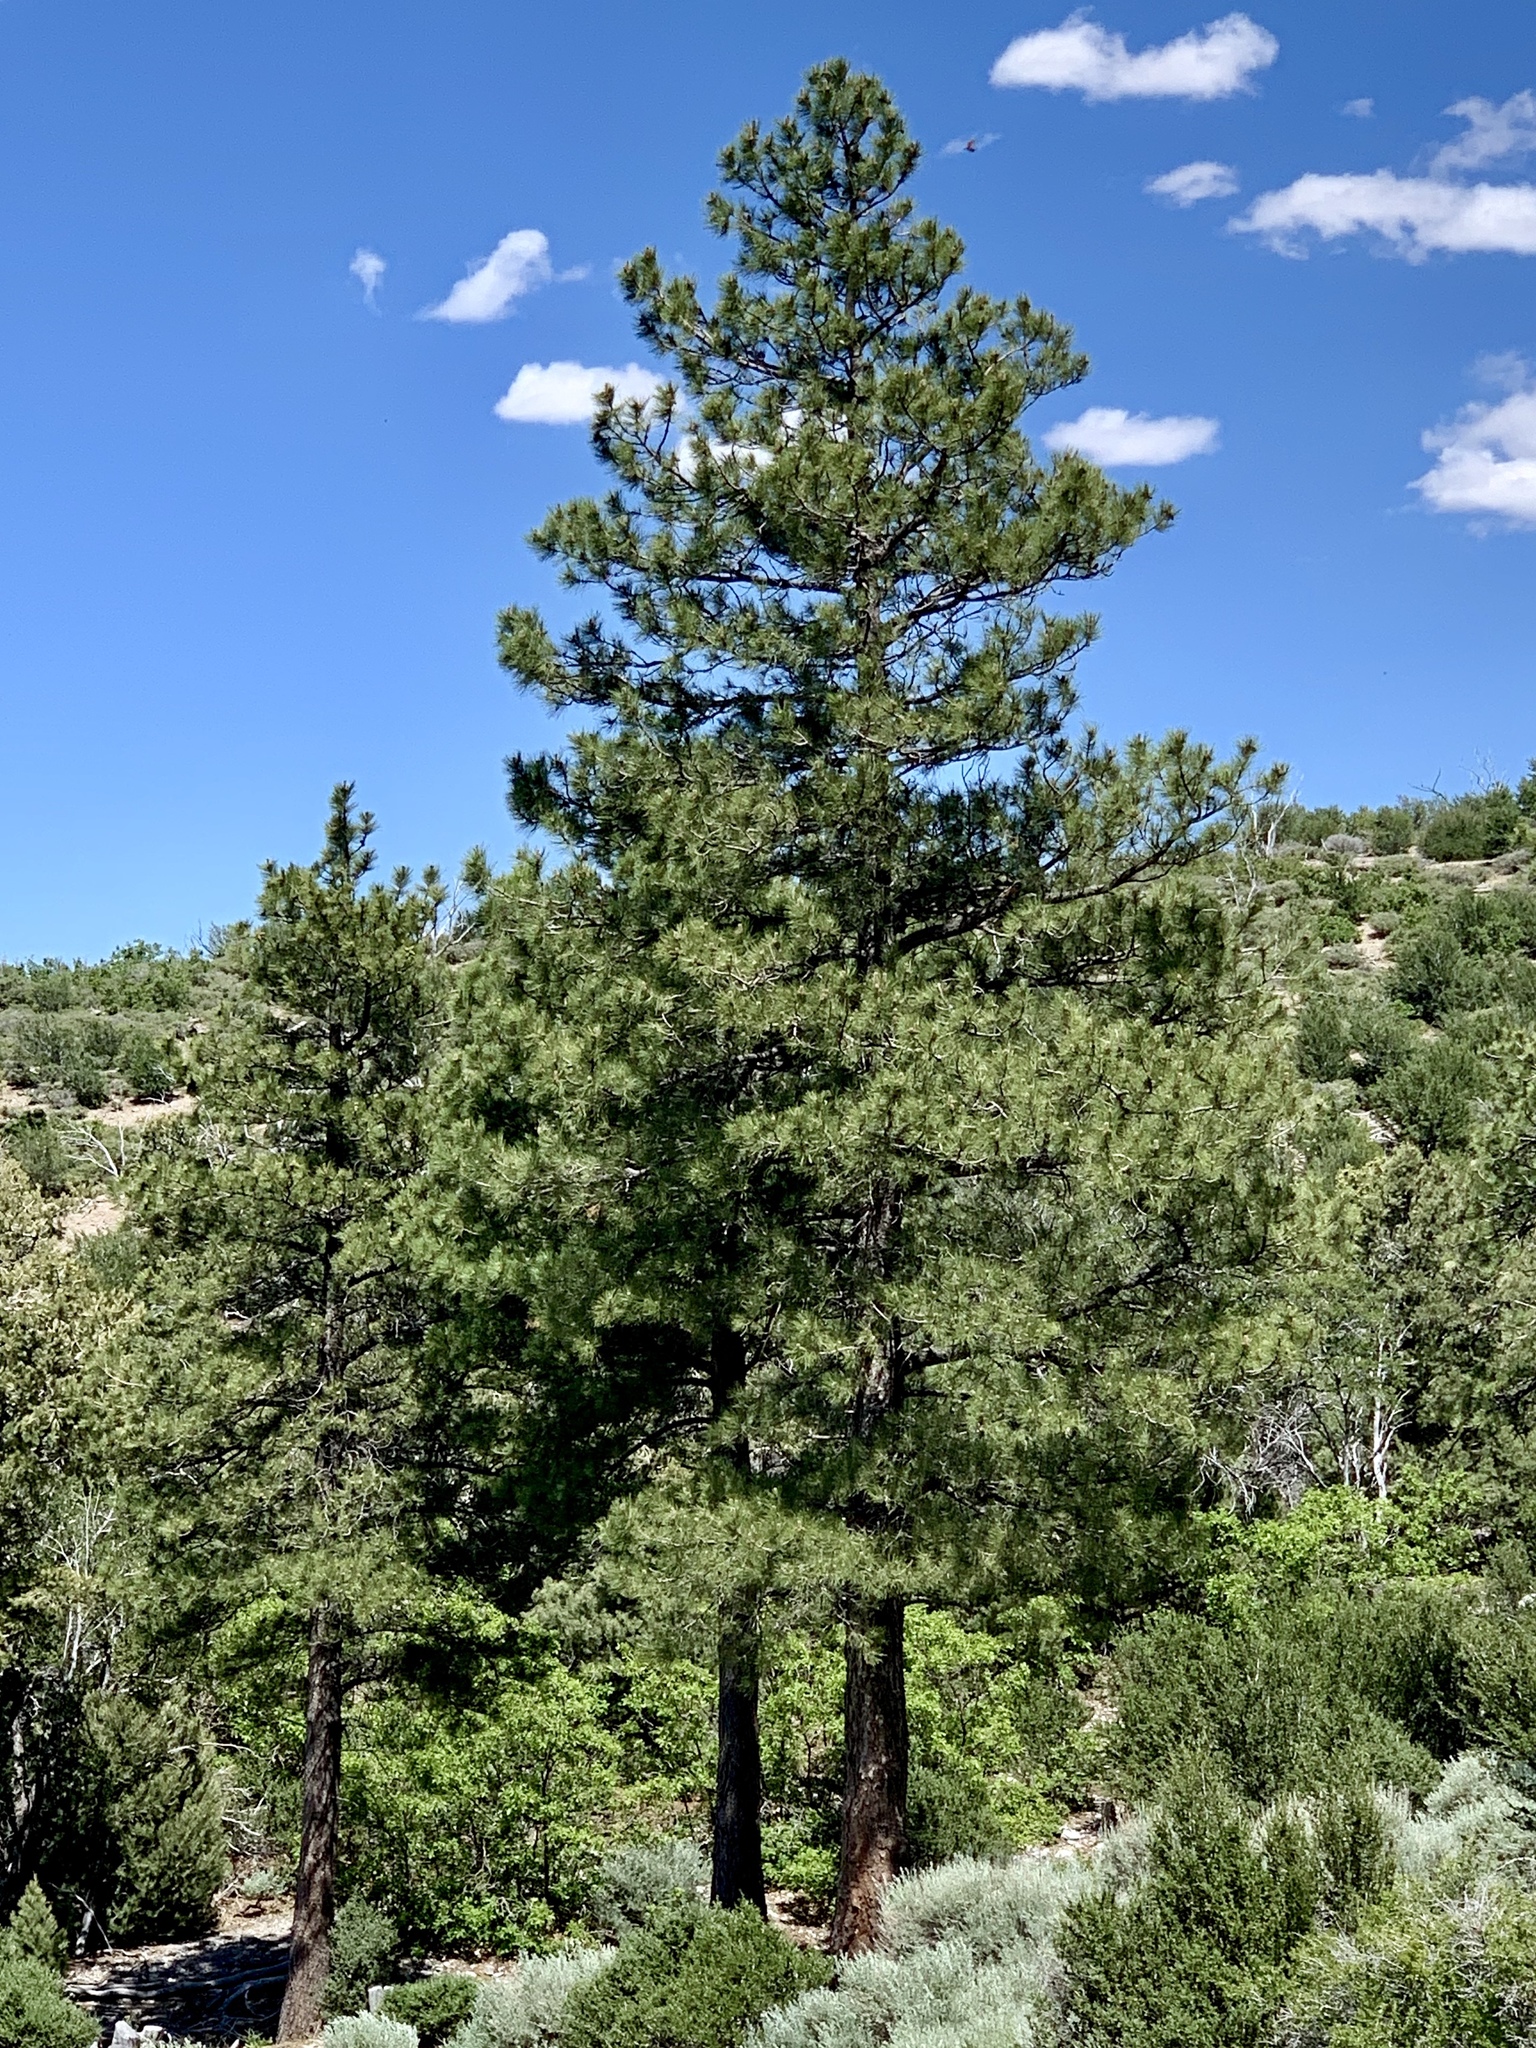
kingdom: Plantae
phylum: Tracheophyta
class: Pinopsida
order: Pinales
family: Pinaceae
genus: Pinus
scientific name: Pinus ponderosa
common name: Western yellow-pine
